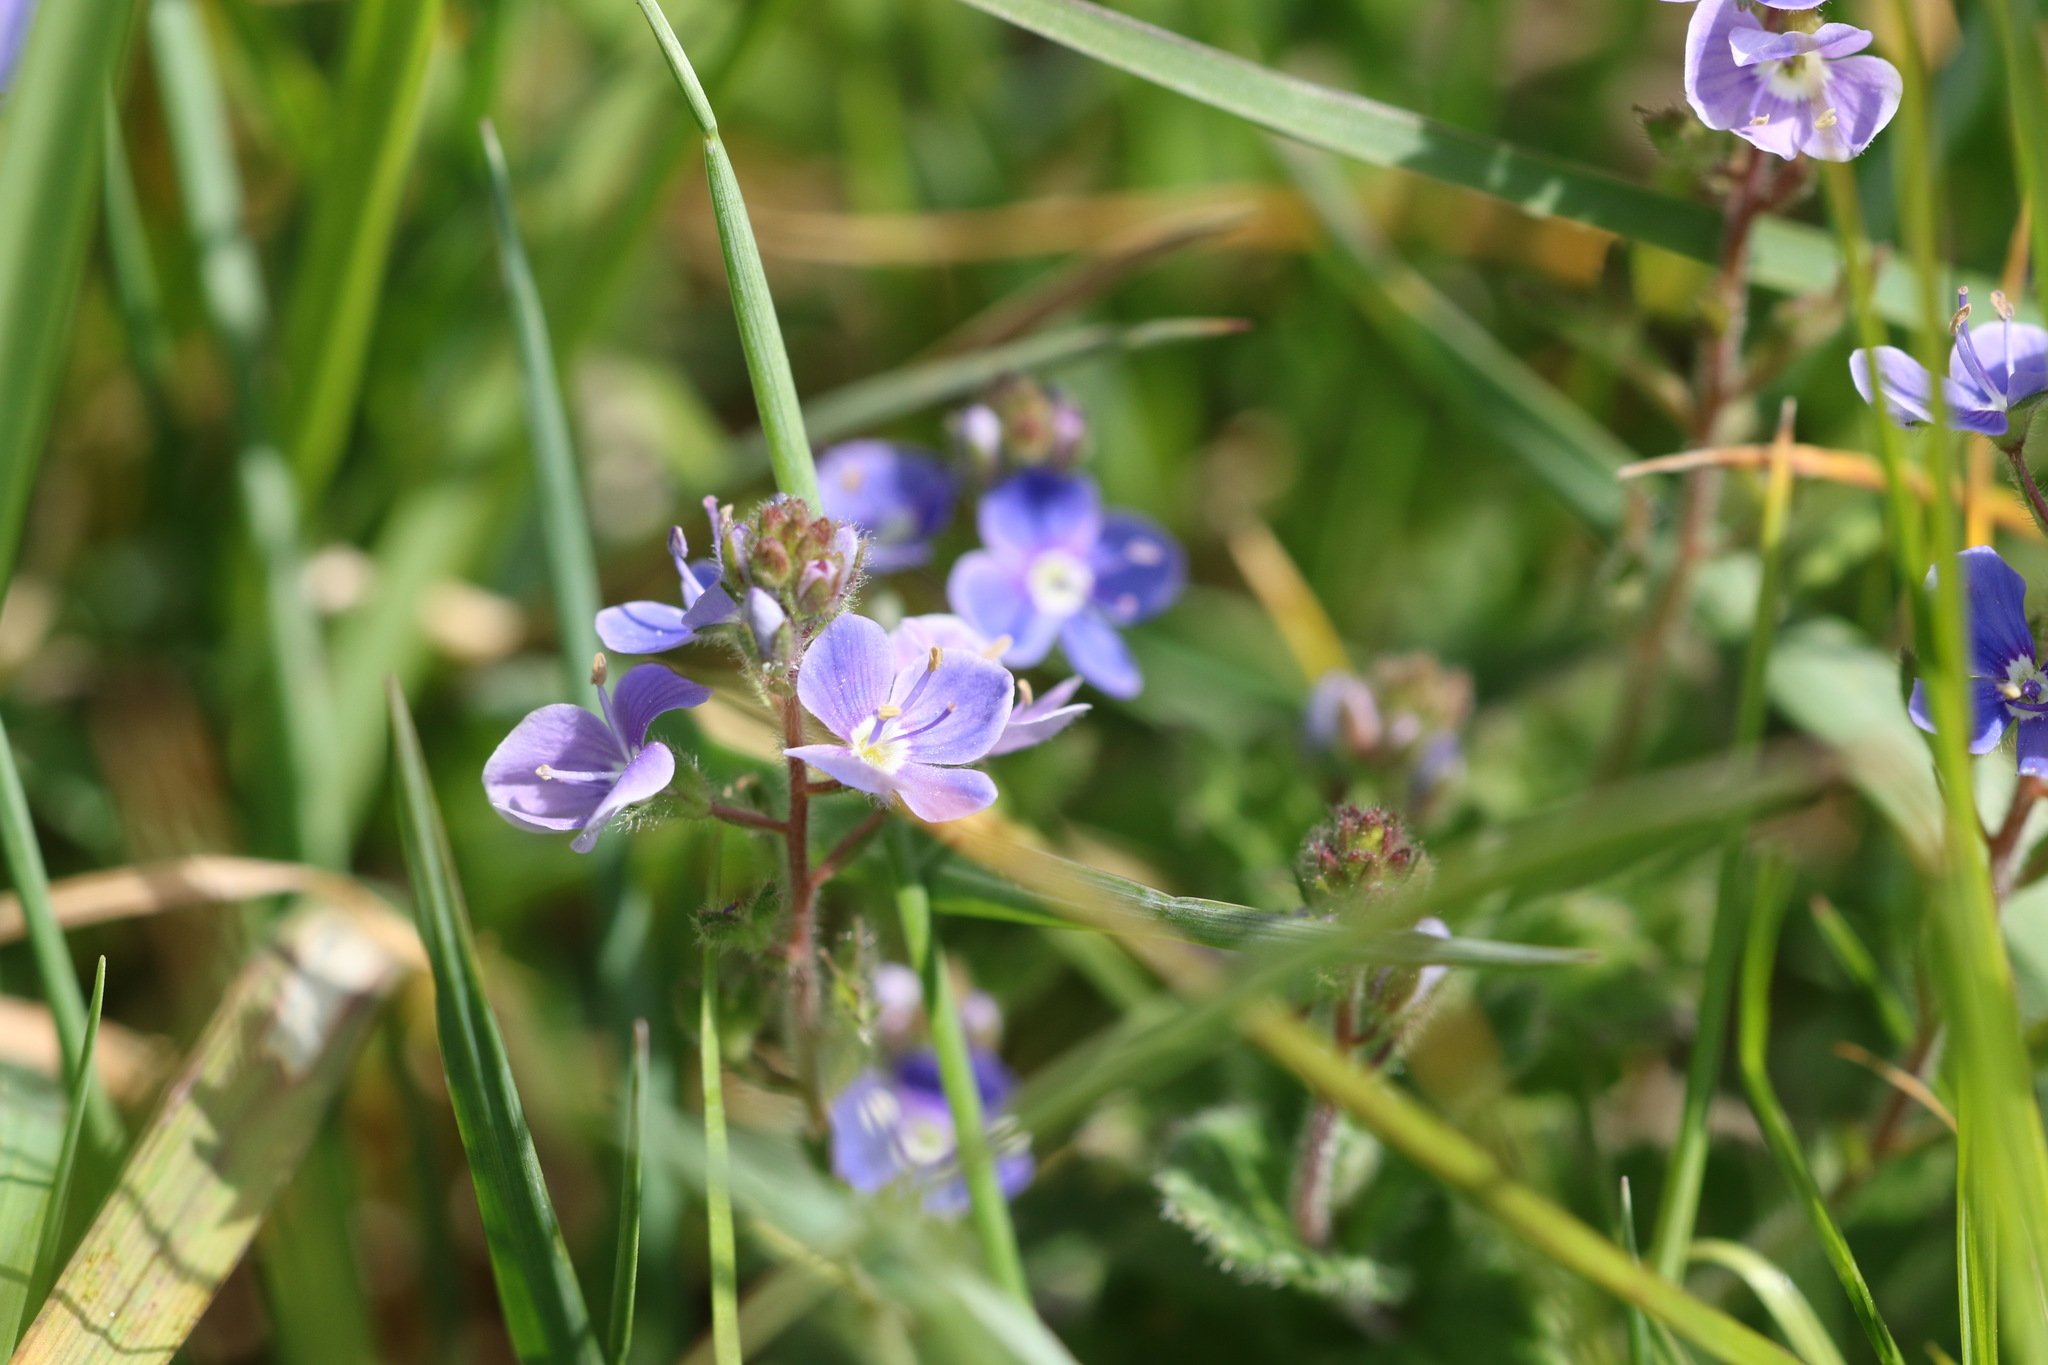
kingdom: Plantae
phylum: Tracheophyta
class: Magnoliopsida
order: Lamiales
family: Plantaginaceae
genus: Veronica
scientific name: Veronica chamaedrys
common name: Germander speedwell
